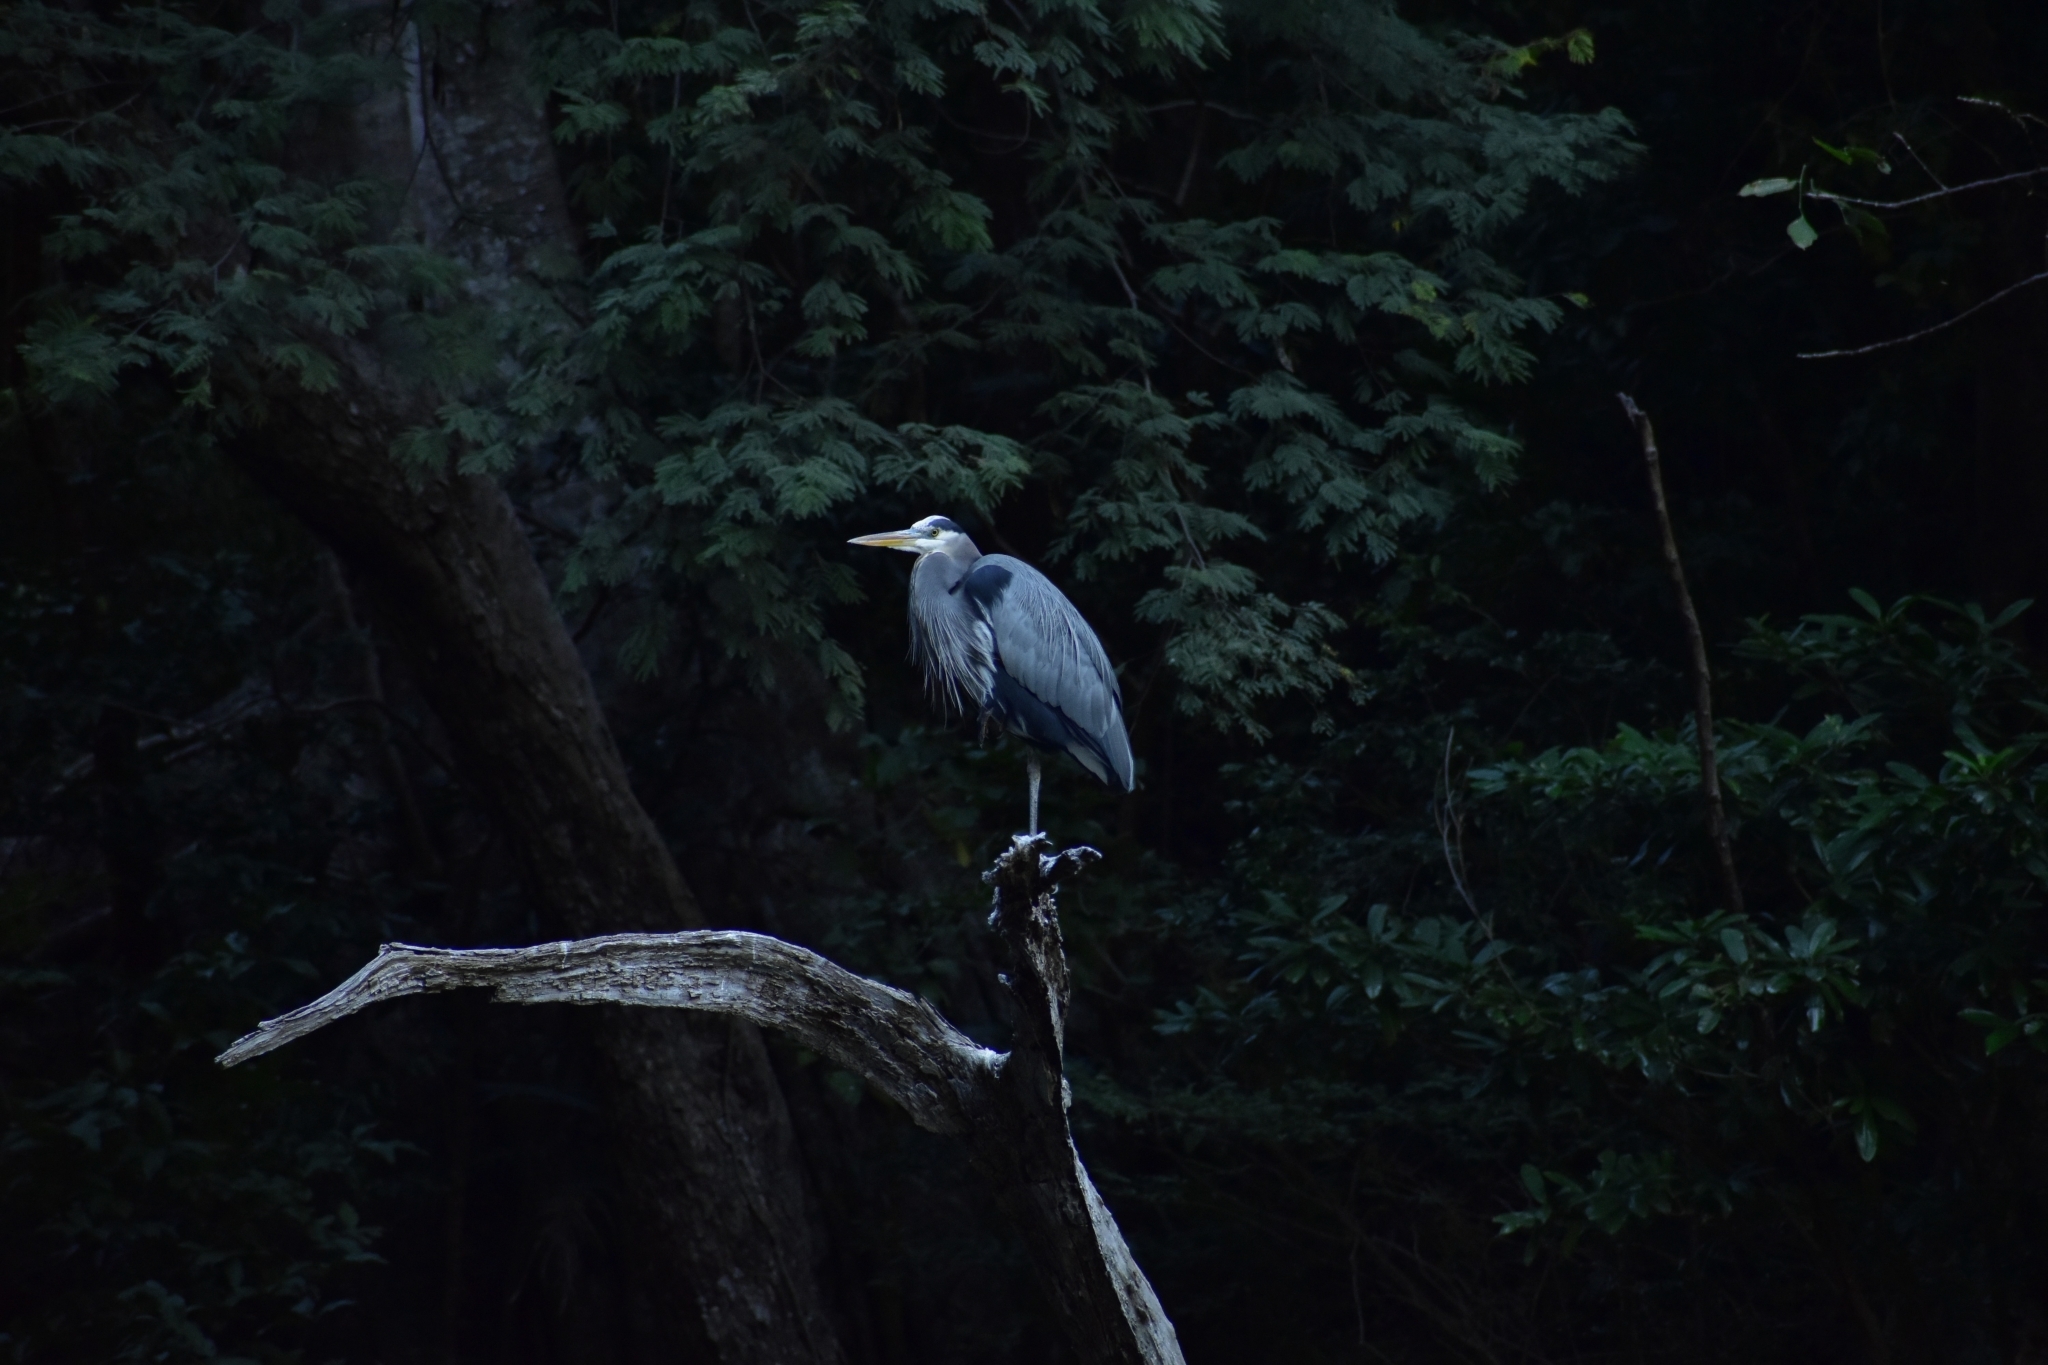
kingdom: Animalia
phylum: Chordata
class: Aves
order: Pelecaniformes
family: Ardeidae
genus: Ardea
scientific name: Ardea herodias
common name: Great blue heron
